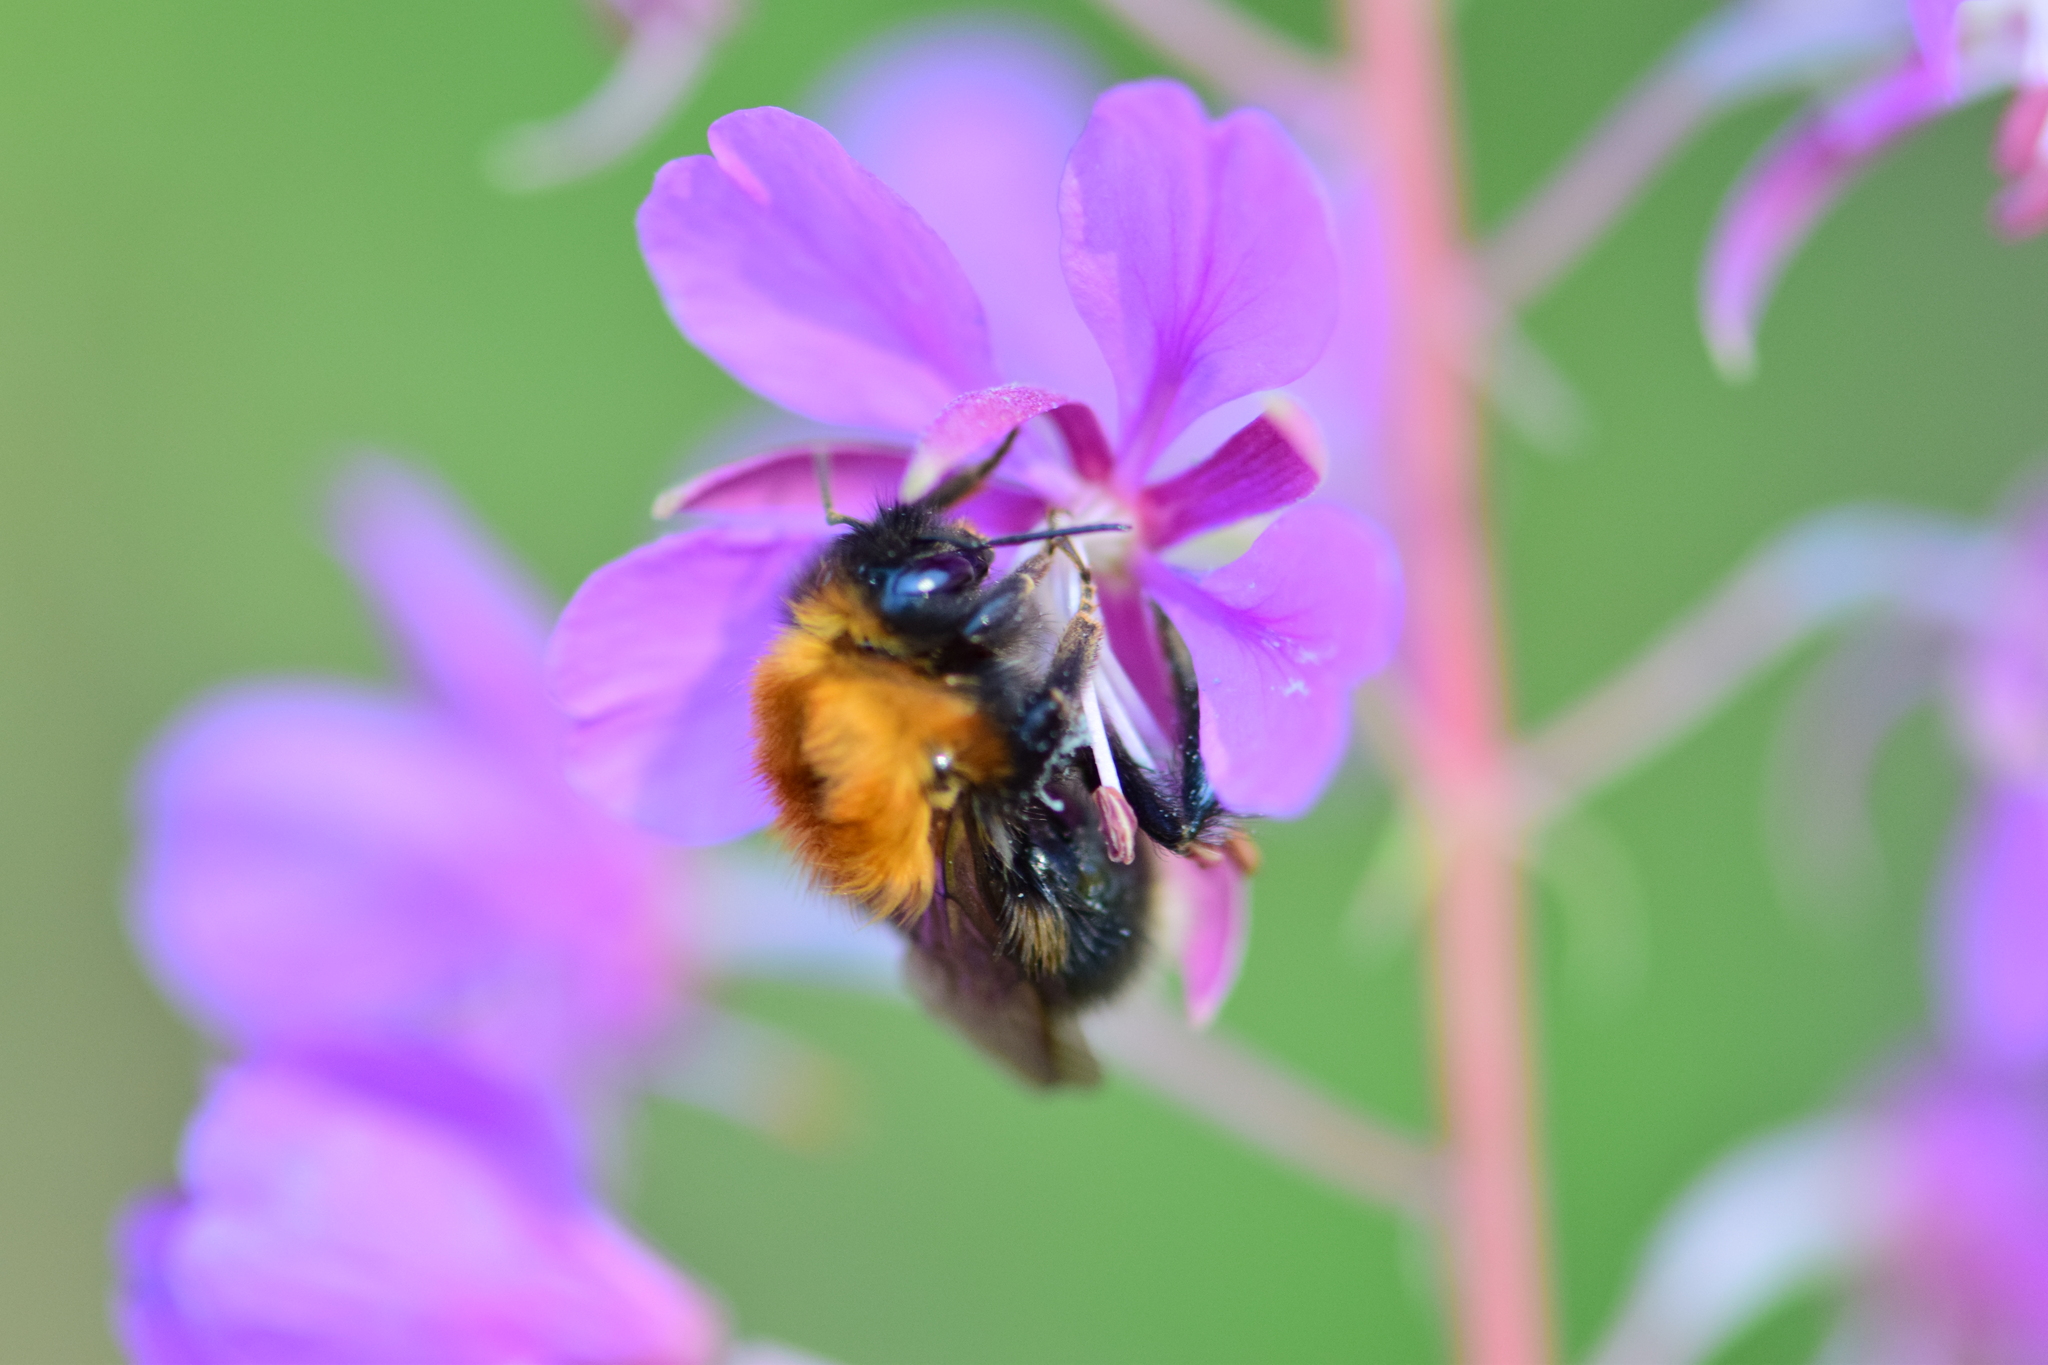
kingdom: Animalia
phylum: Arthropoda
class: Insecta
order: Hymenoptera
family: Apidae
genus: Bombus
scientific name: Bombus hypnorum
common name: New garden bumblebee
